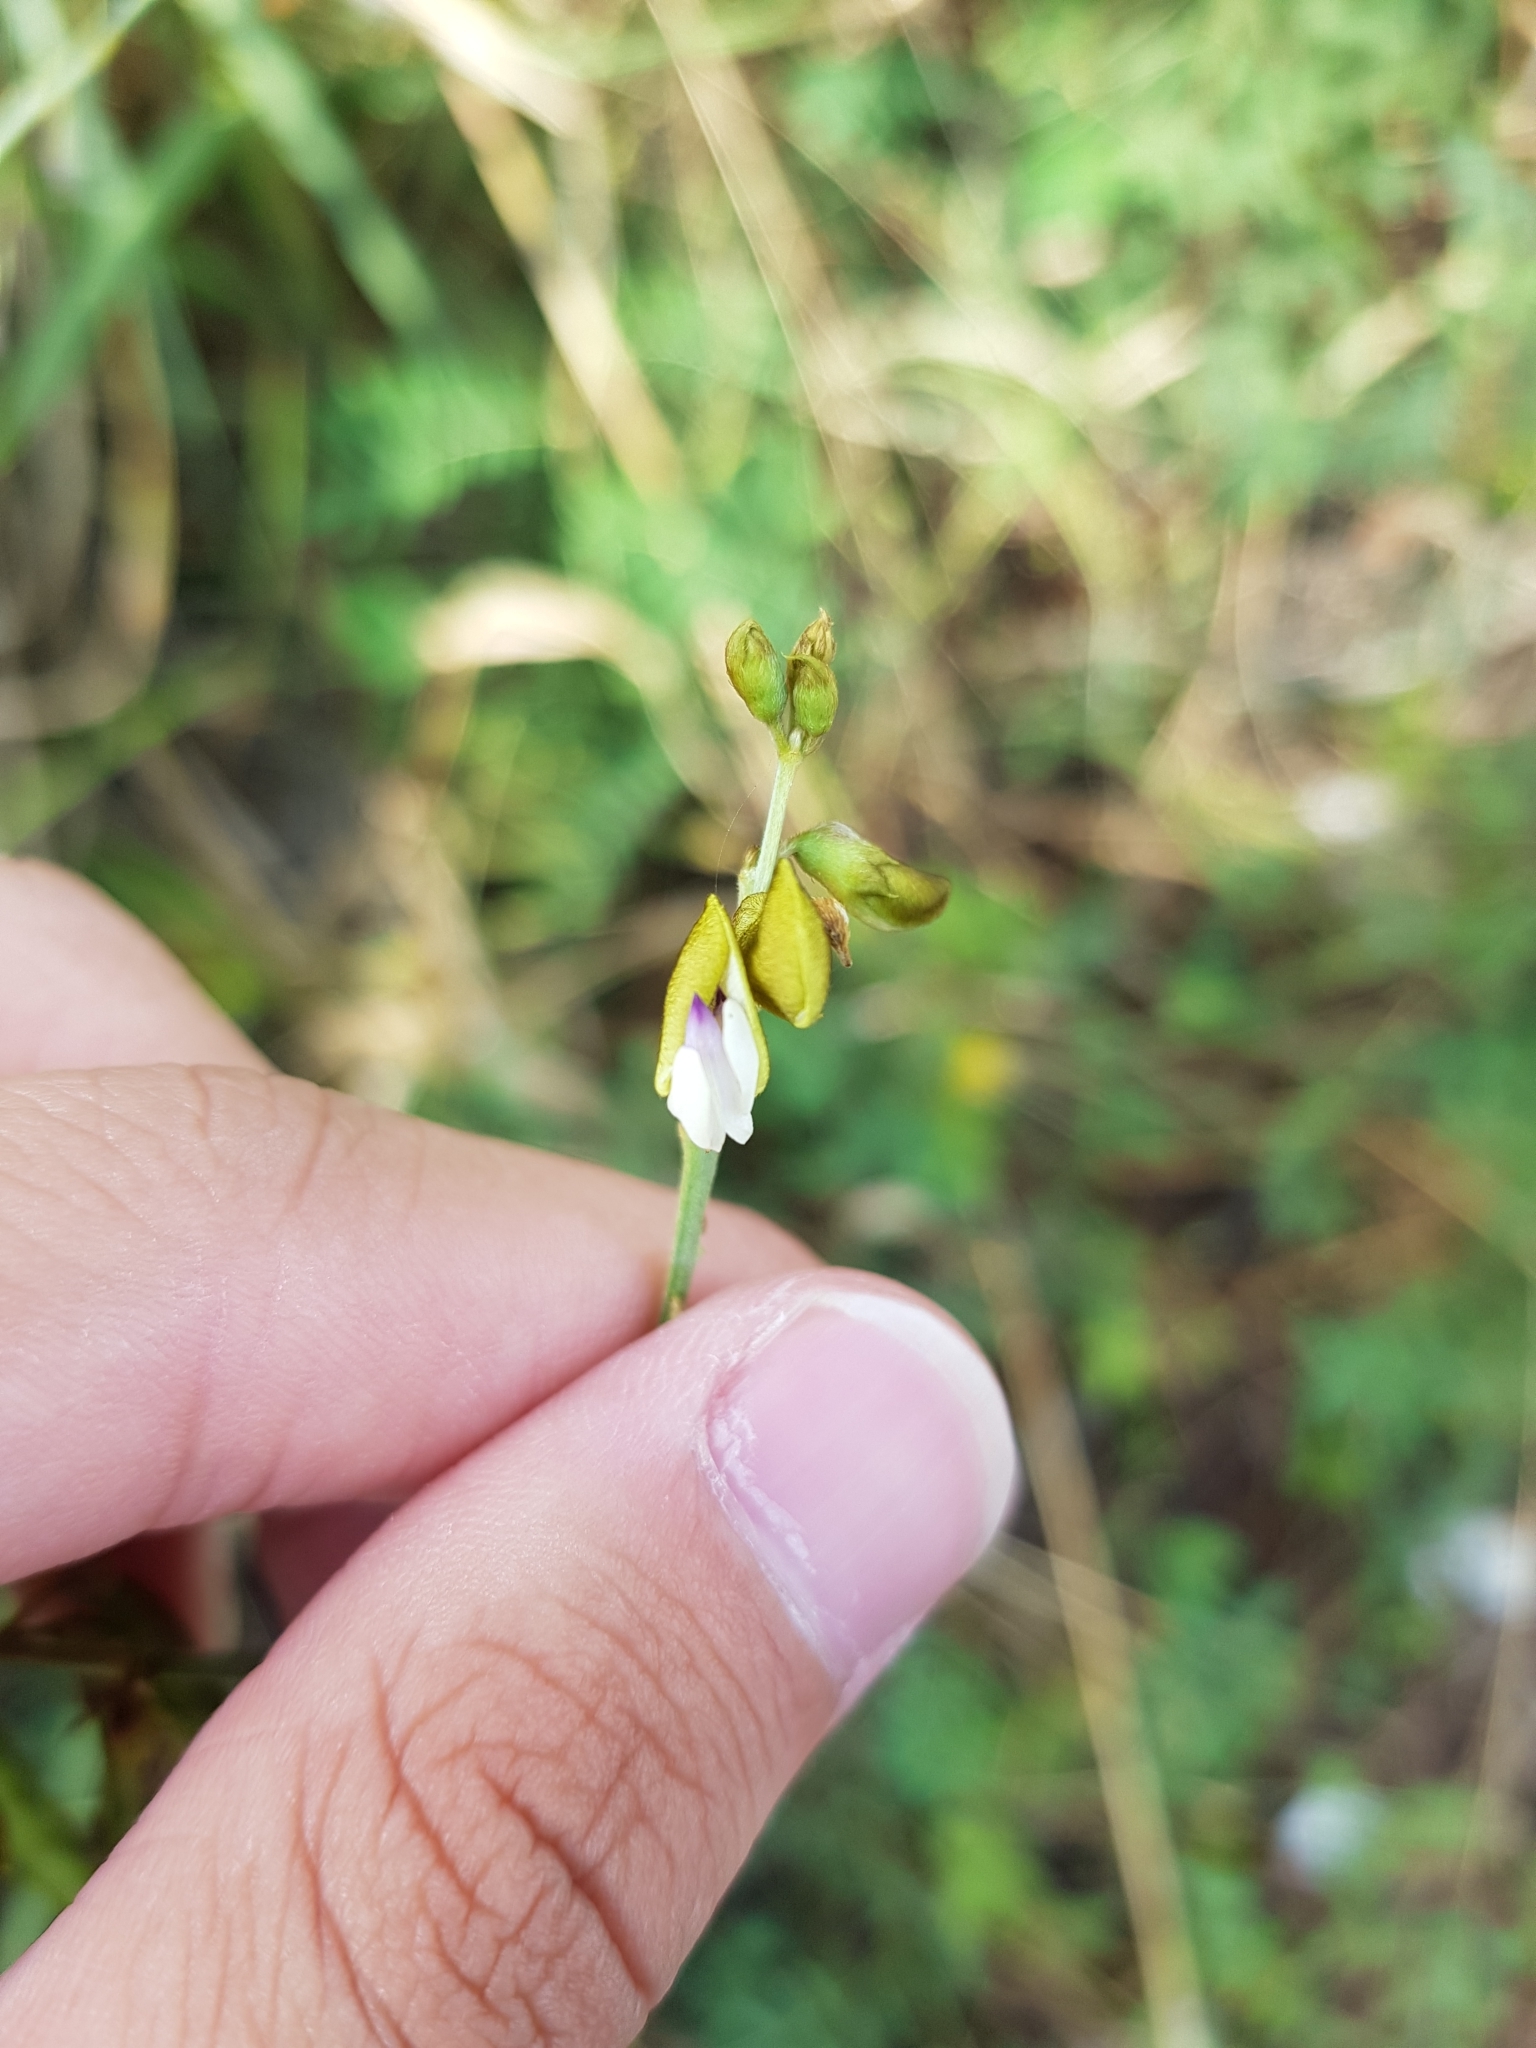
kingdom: Plantae
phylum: Tracheophyta
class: Magnoliopsida
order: Fabales
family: Fabaceae
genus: Tephrosia
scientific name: Tephrosia noctiflora
